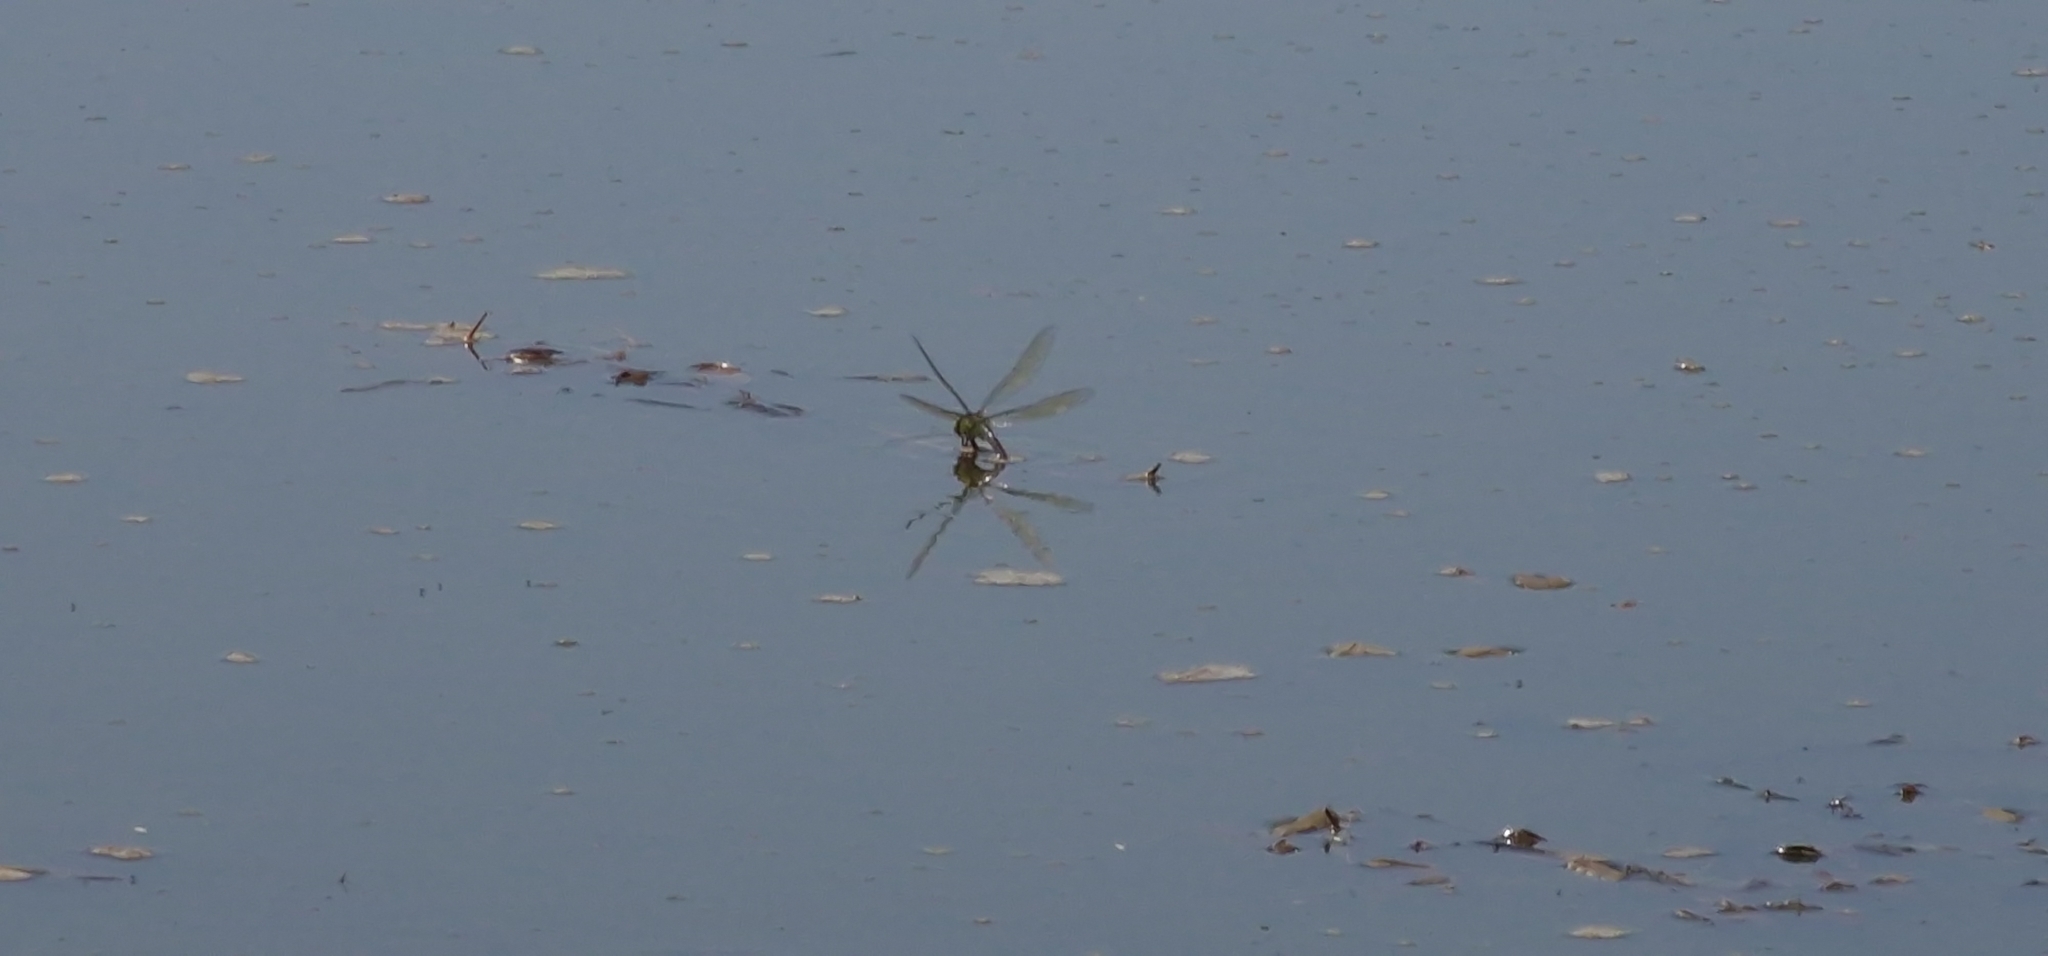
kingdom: Animalia
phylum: Arthropoda
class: Insecta
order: Odonata
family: Aeshnidae
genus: Anax
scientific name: Anax imperator
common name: Emperor dragonfly
